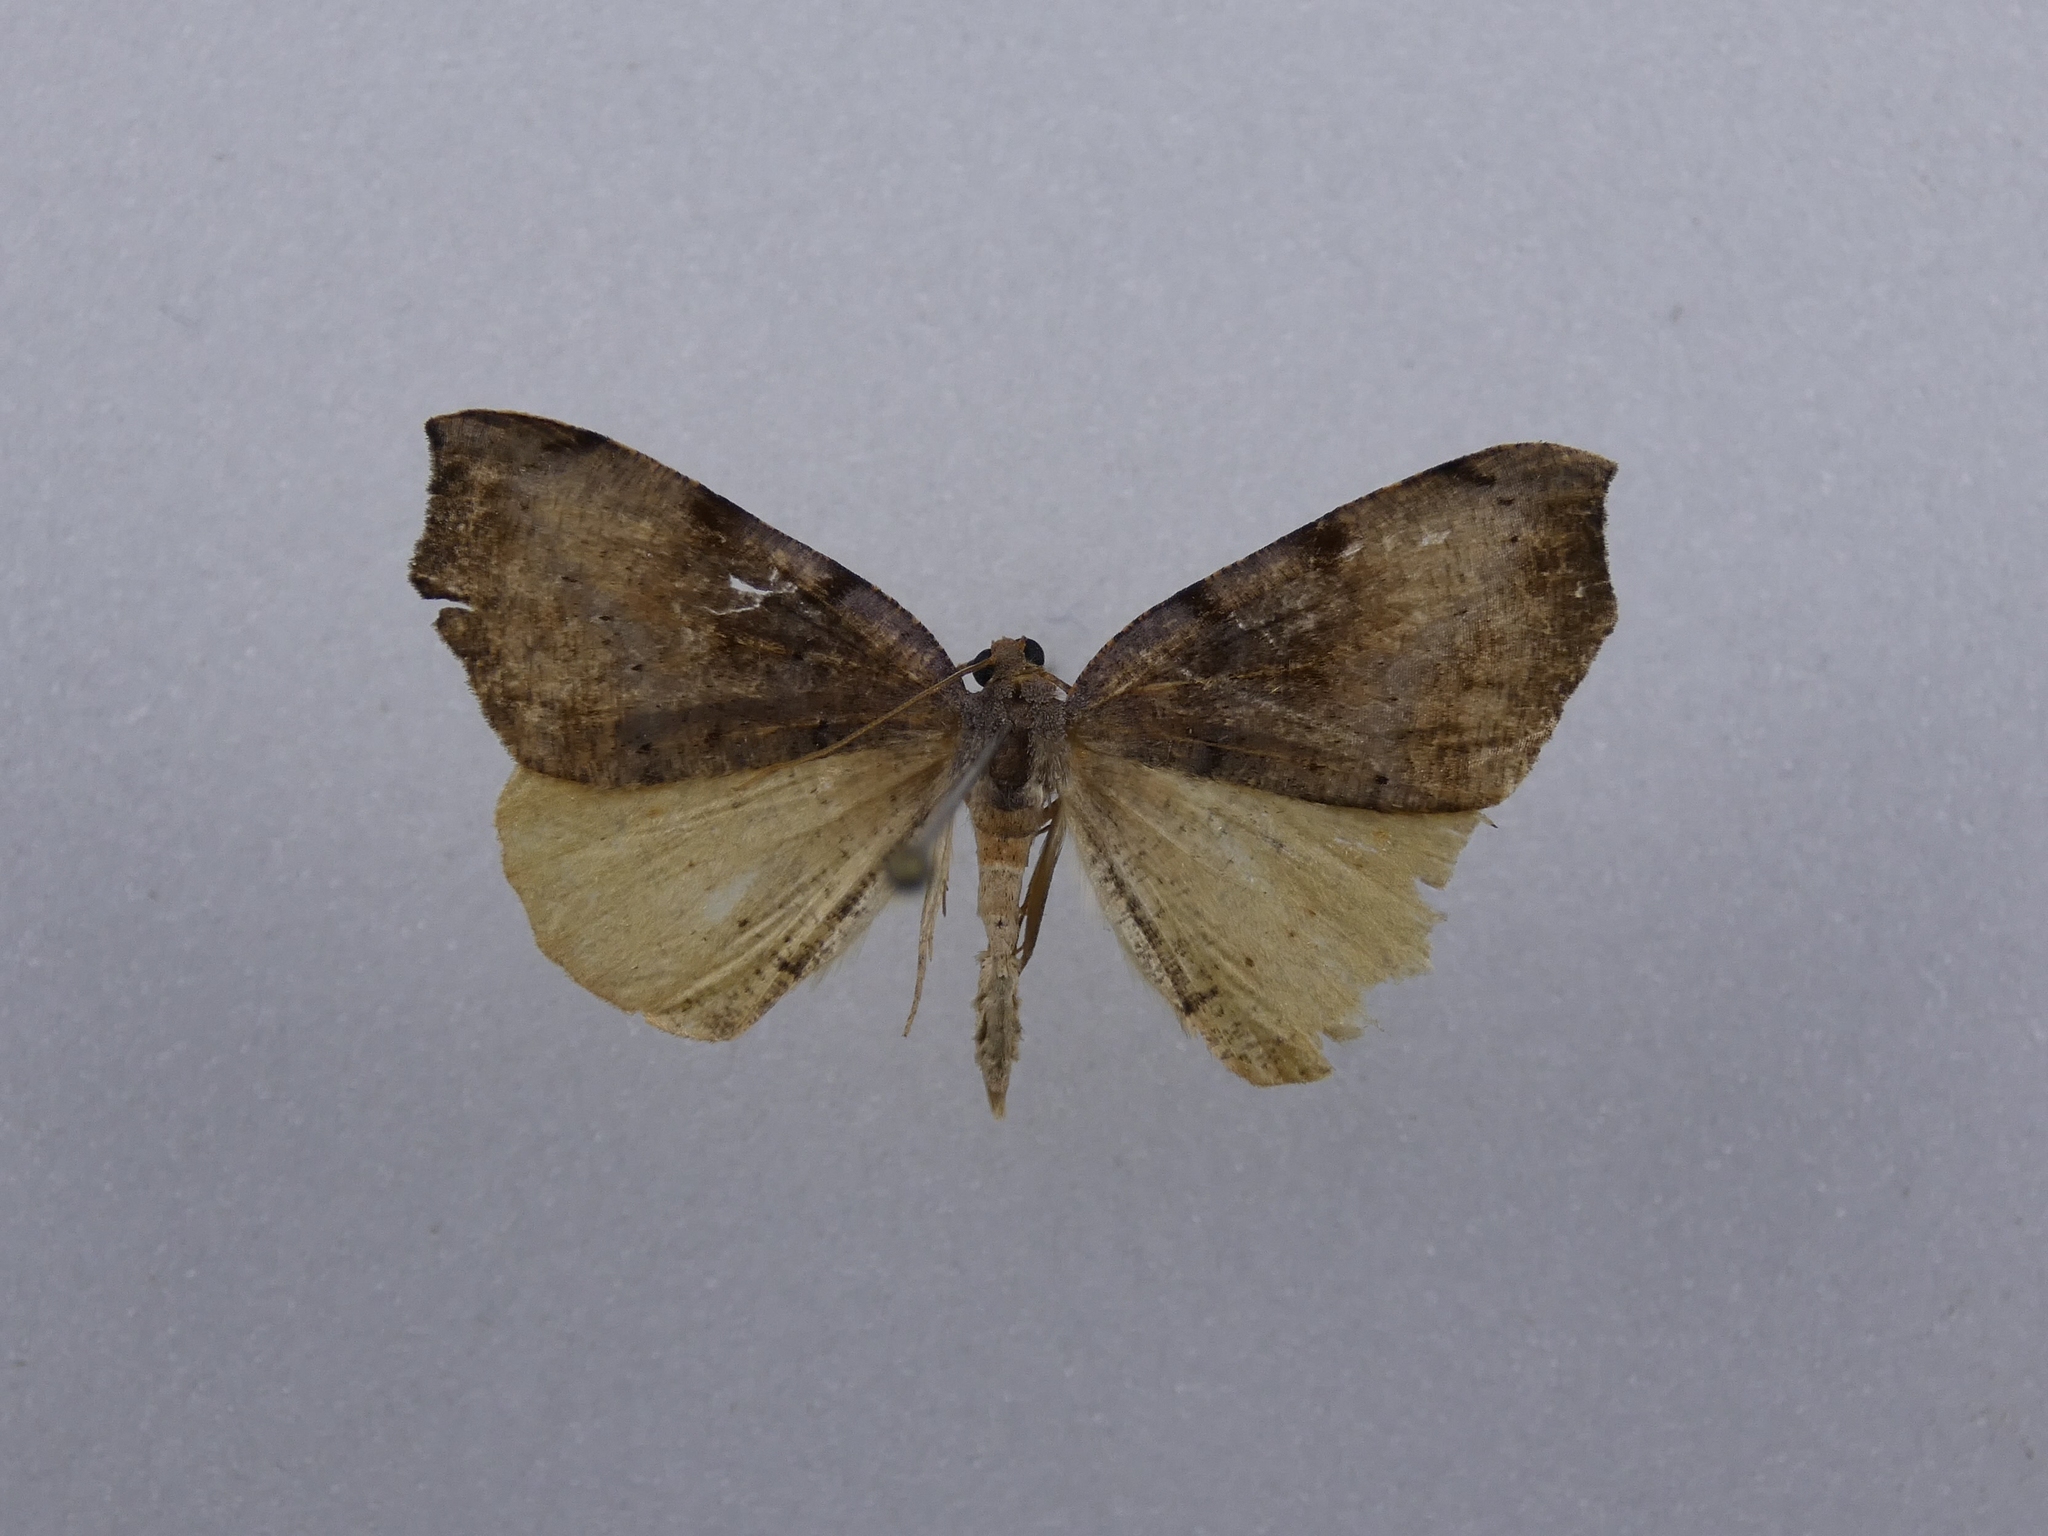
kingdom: Animalia
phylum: Arthropoda
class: Insecta
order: Lepidoptera
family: Geometridae
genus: Sestra
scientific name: Sestra flexata
